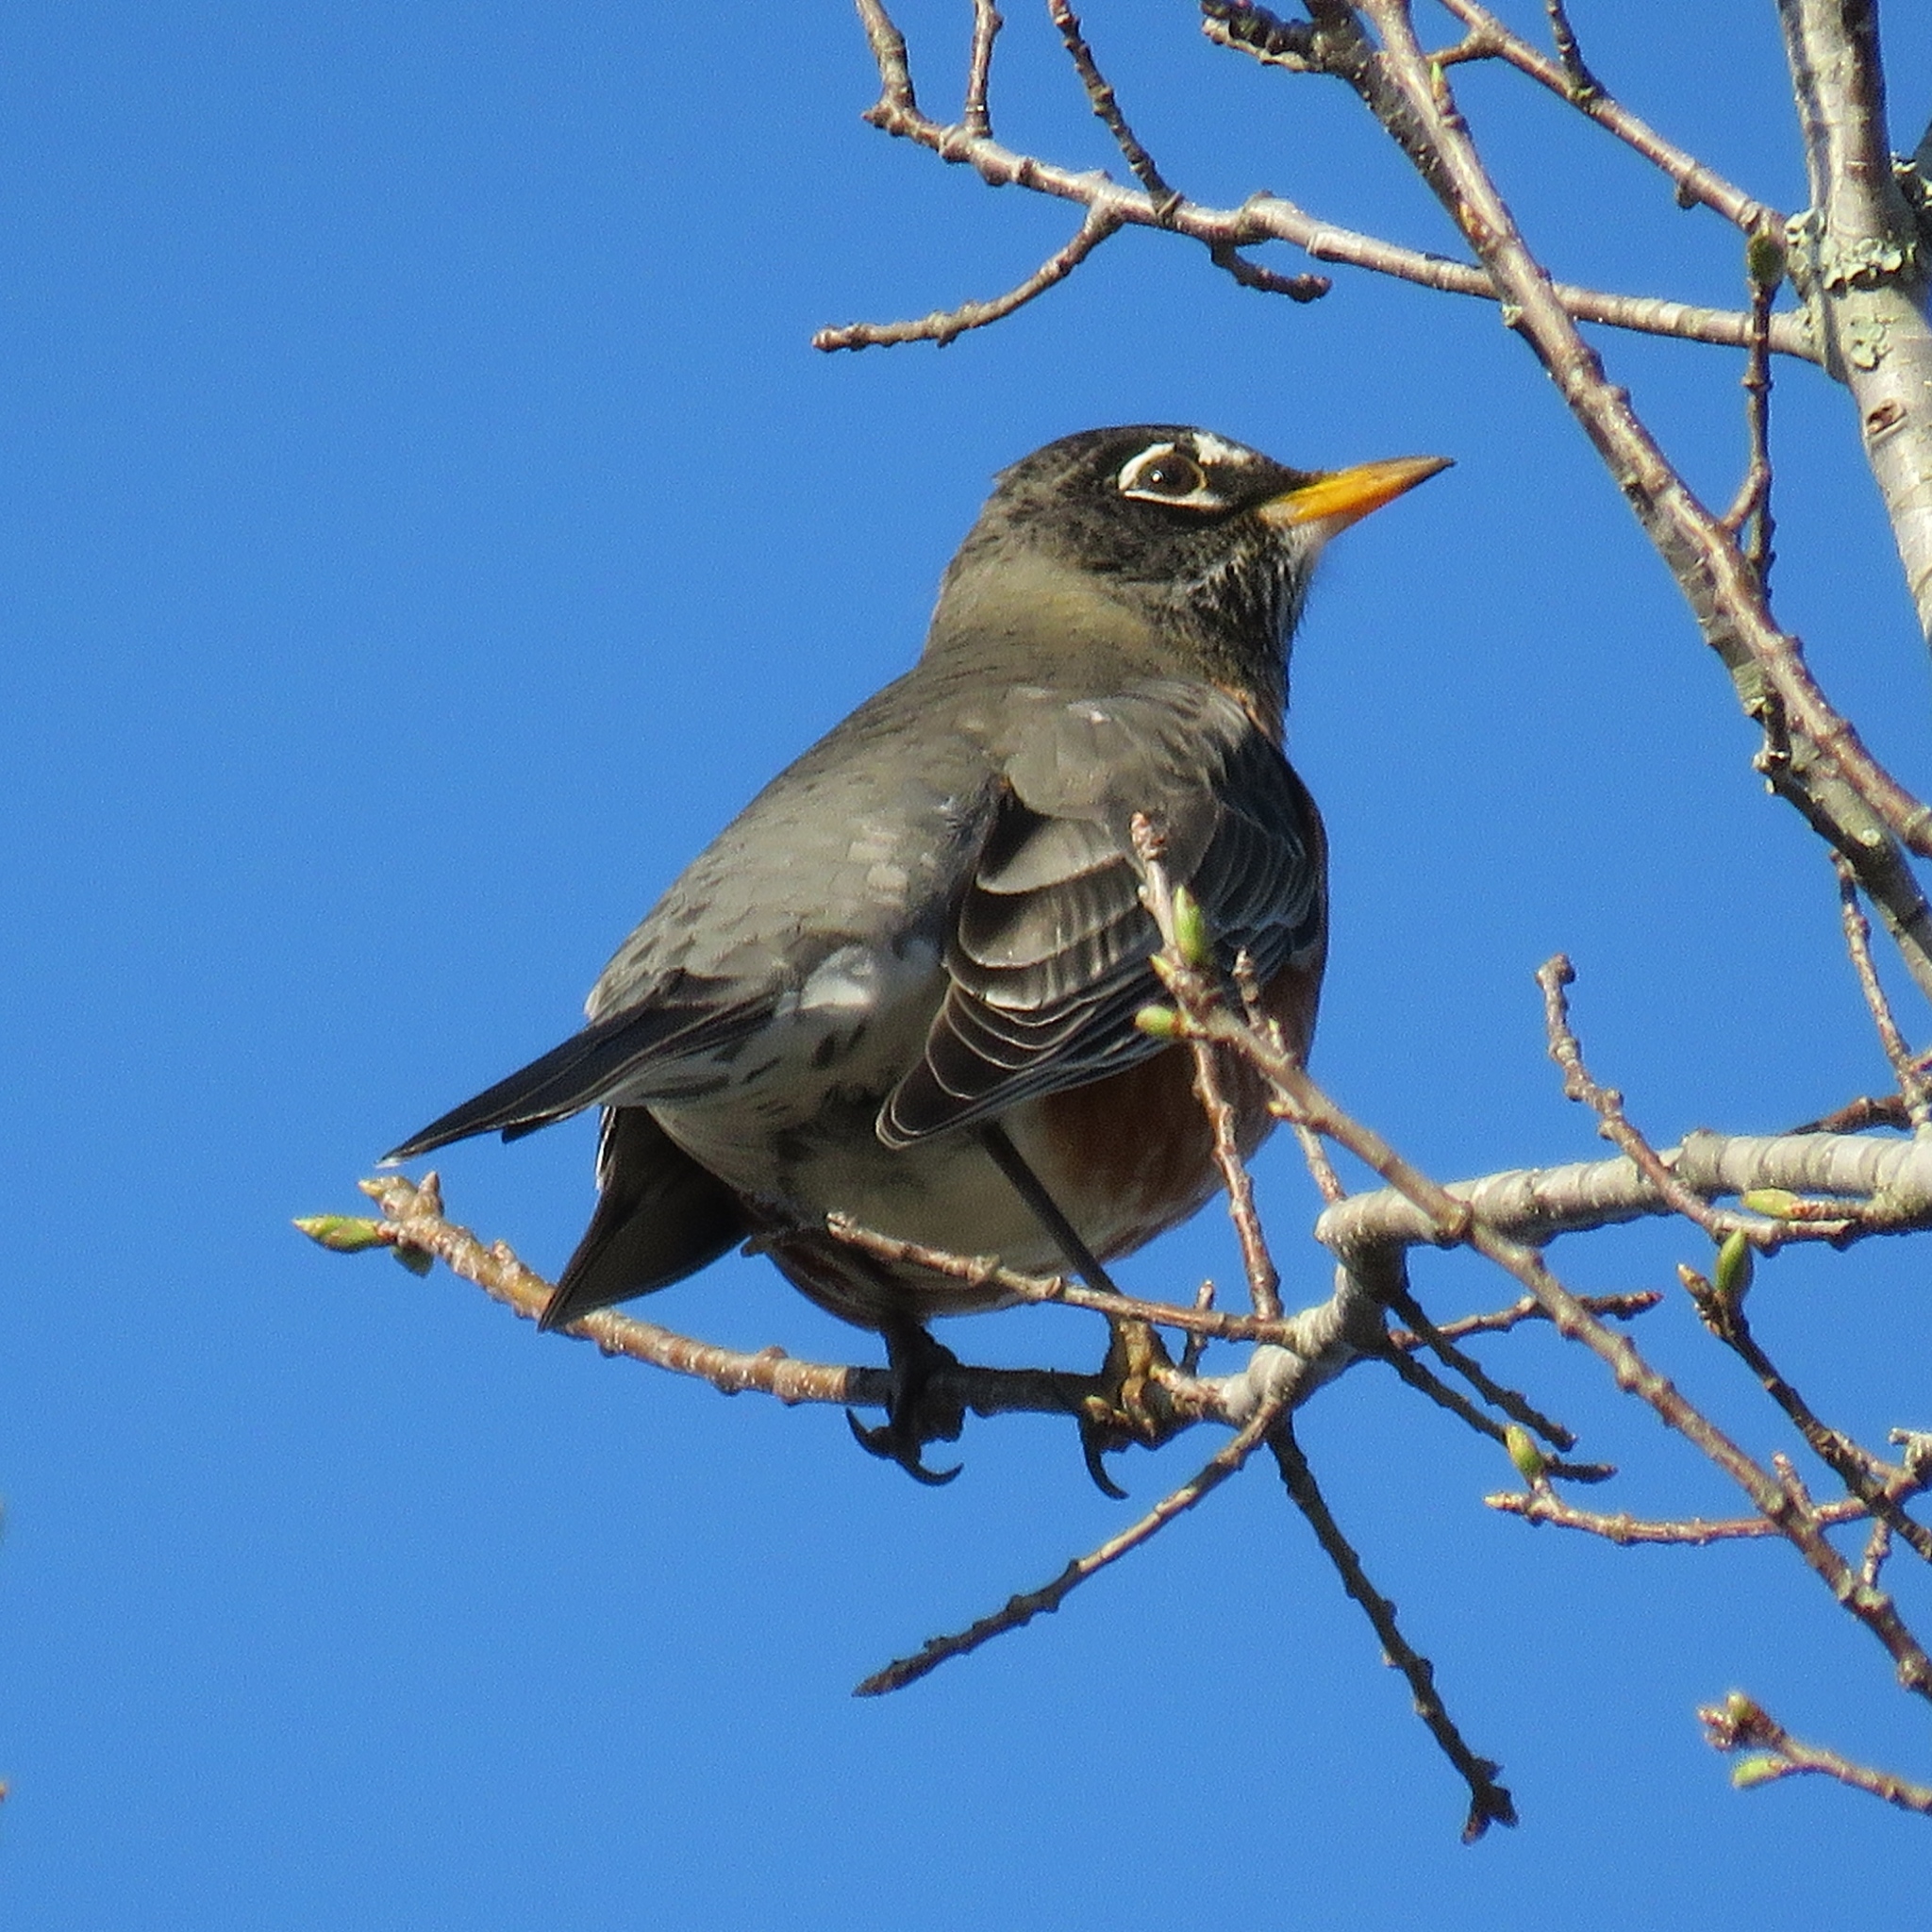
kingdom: Animalia
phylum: Chordata
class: Aves
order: Passeriformes
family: Turdidae
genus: Turdus
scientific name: Turdus migratorius
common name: American robin
